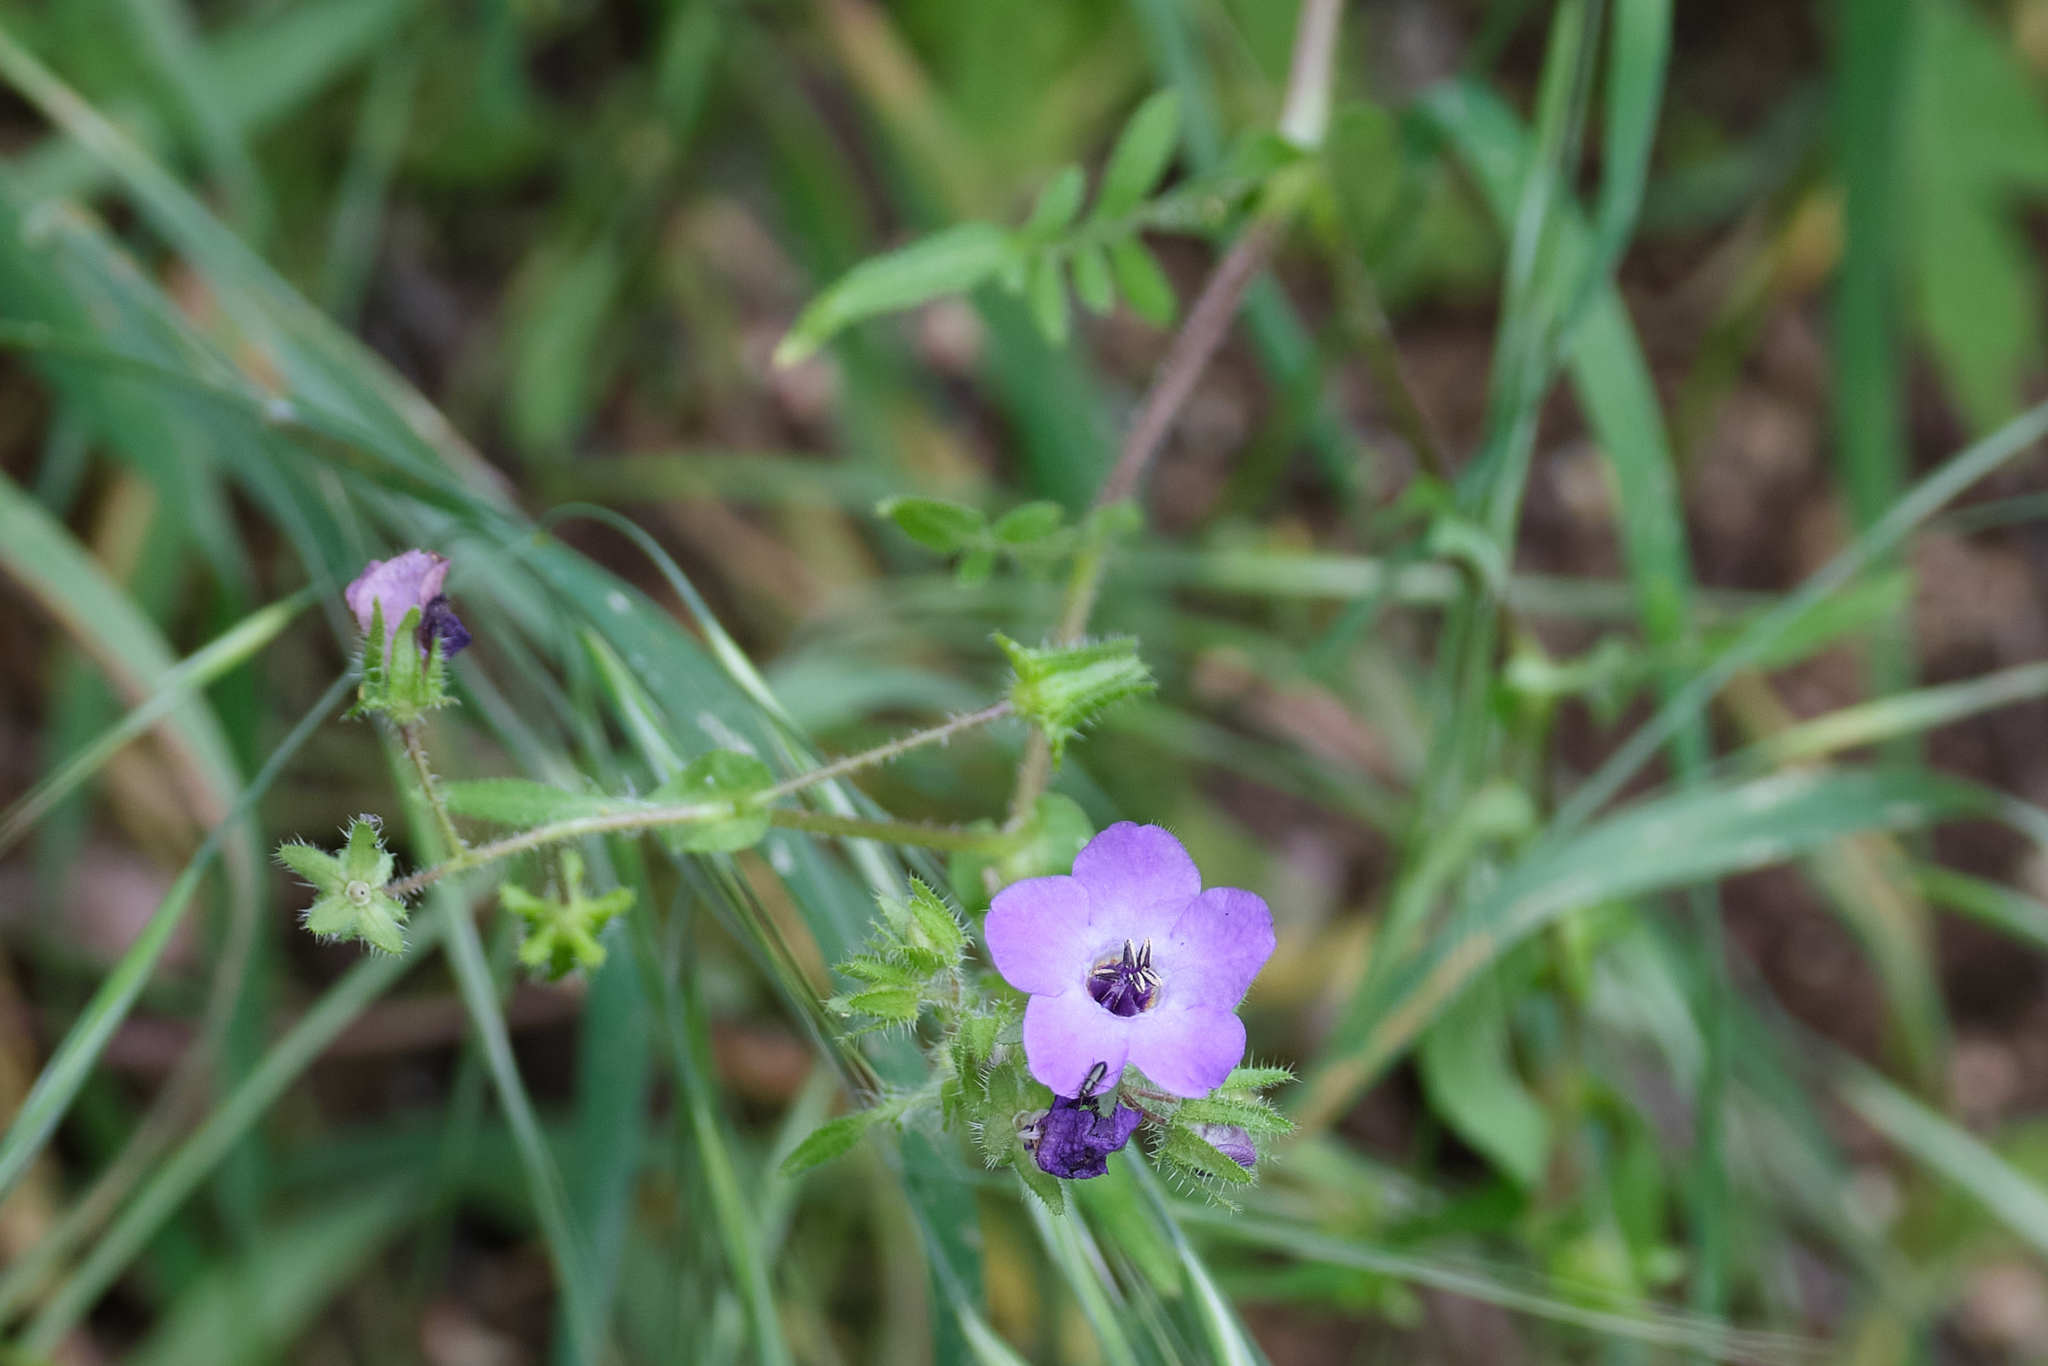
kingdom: Plantae
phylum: Tracheophyta
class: Magnoliopsida
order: Boraginales
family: Hydrophyllaceae
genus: Pholistoma
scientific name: Pholistoma auritum
